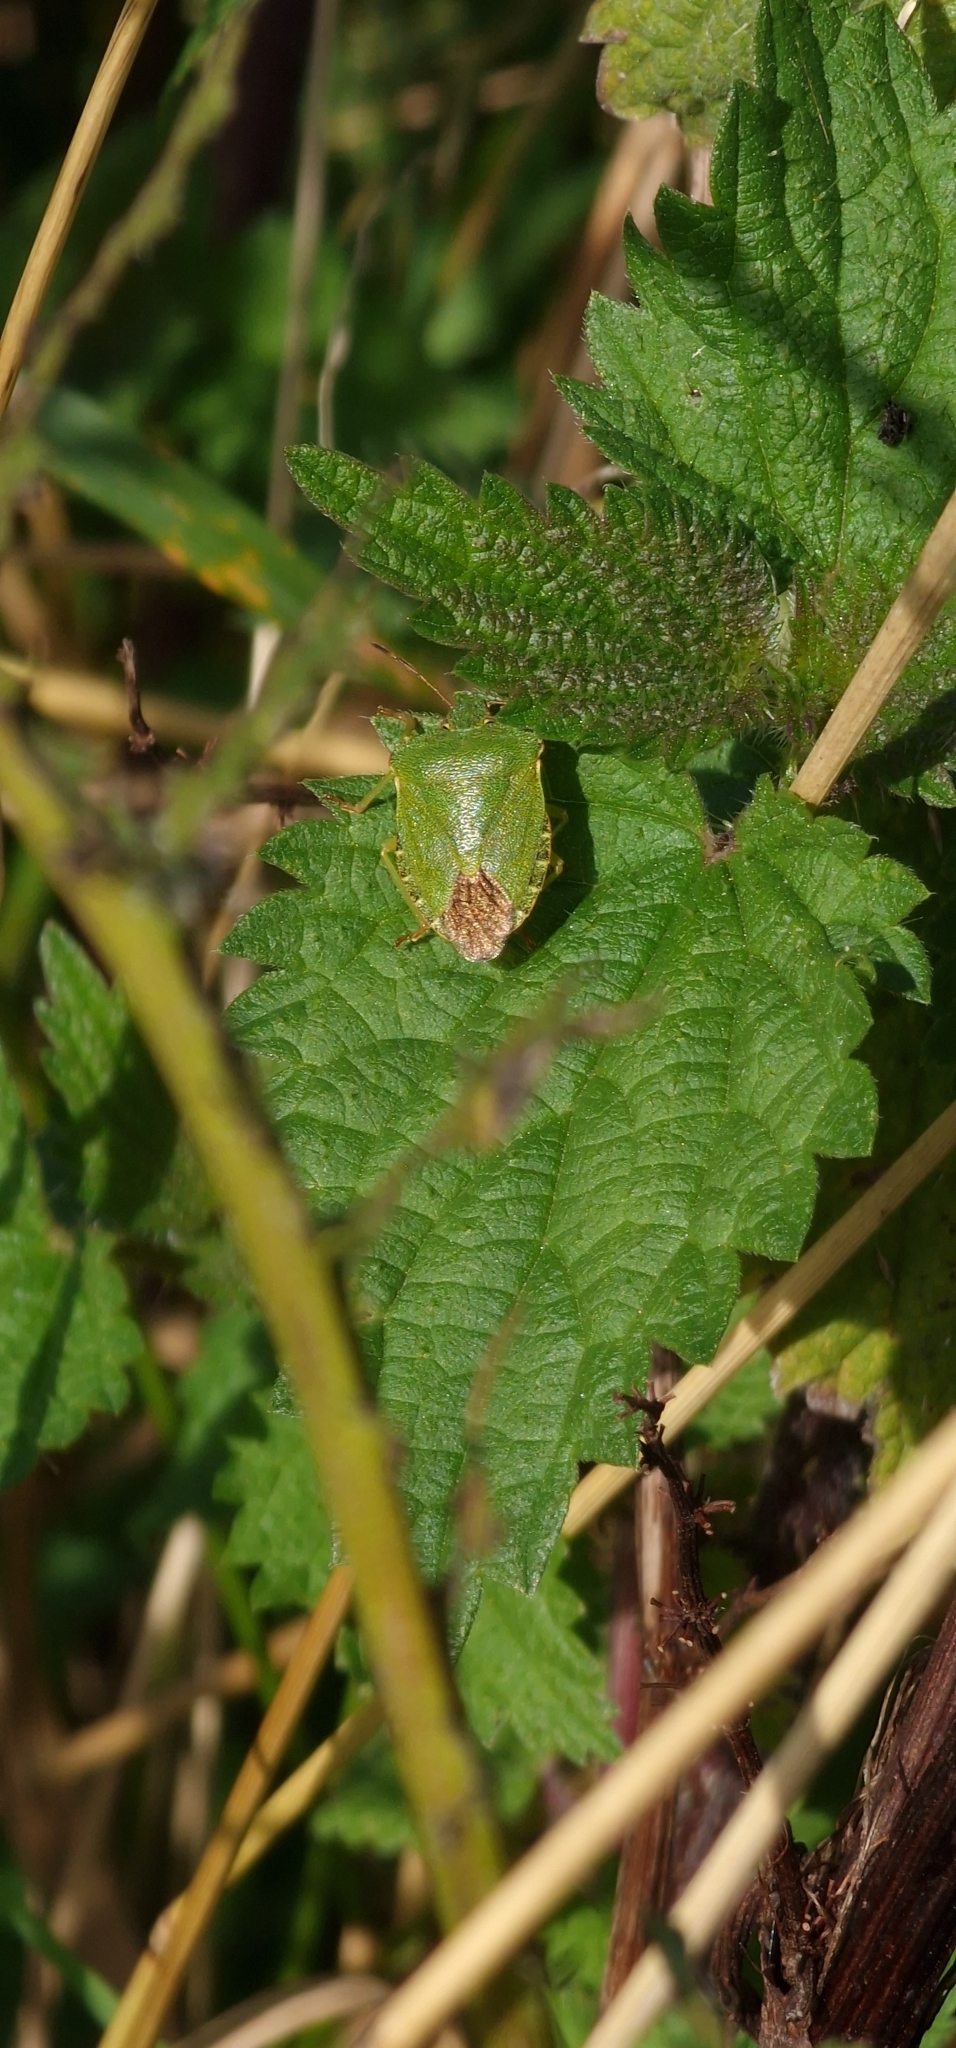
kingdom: Animalia
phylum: Arthropoda
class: Insecta
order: Hemiptera
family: Pentatomidae
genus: Palomena
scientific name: Palomena prasina
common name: Green shieldbug
